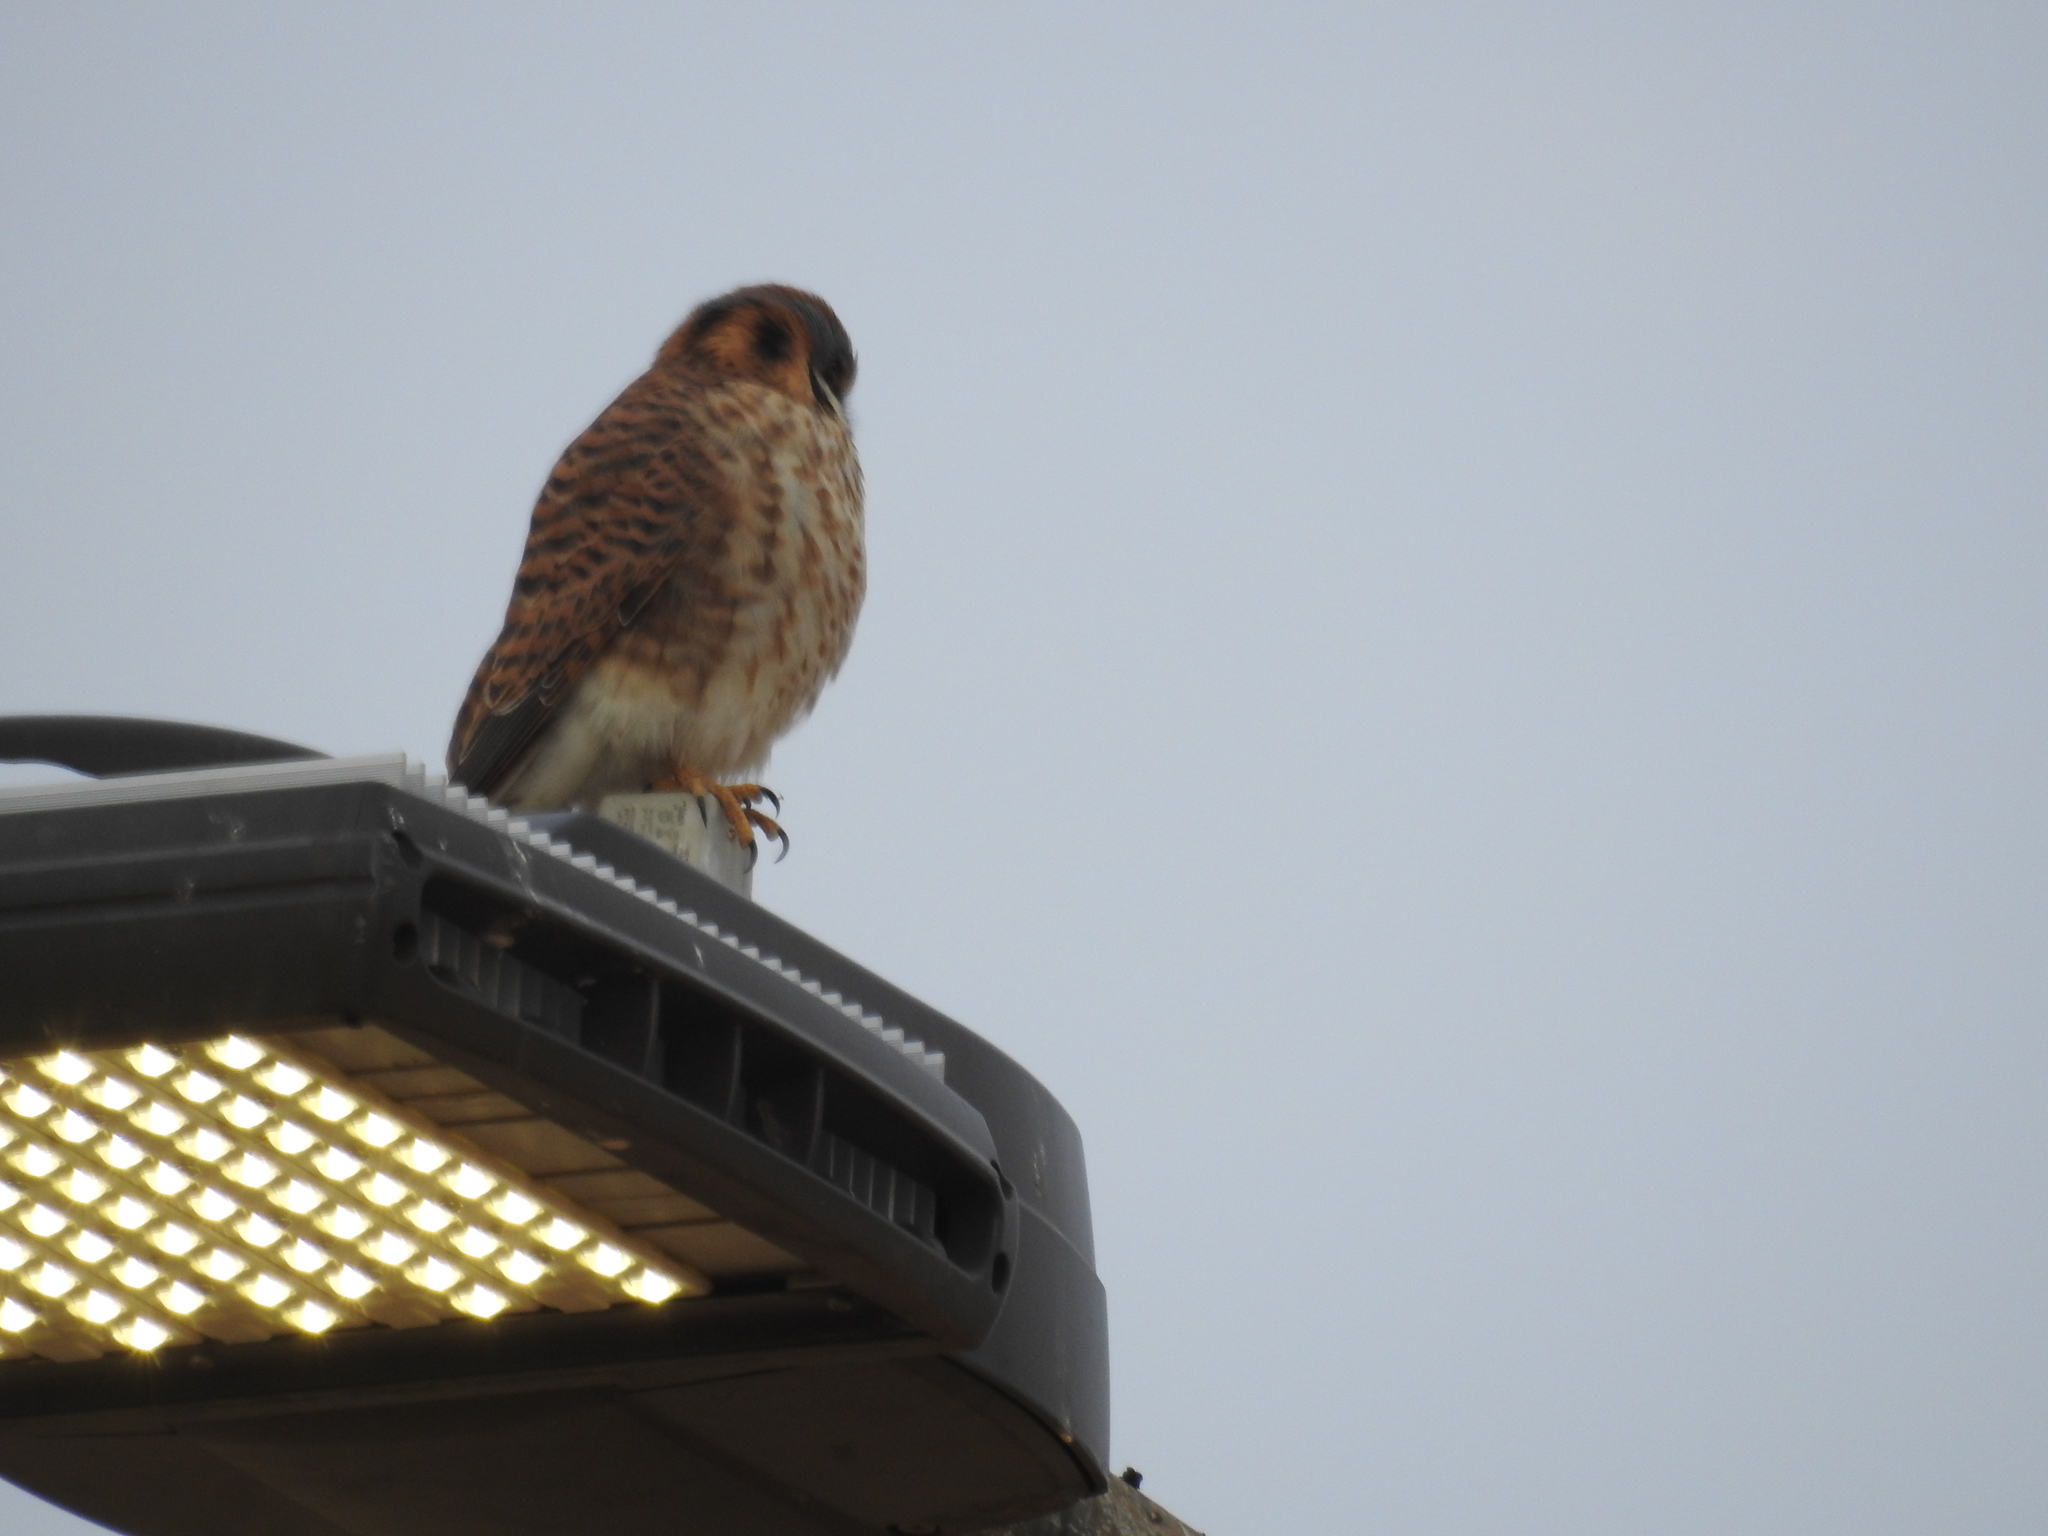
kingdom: Animalia
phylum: Chordata
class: Aves
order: Falconiformes
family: Falconidae
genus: Falco
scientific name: Falco sparverius
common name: American kestrel
